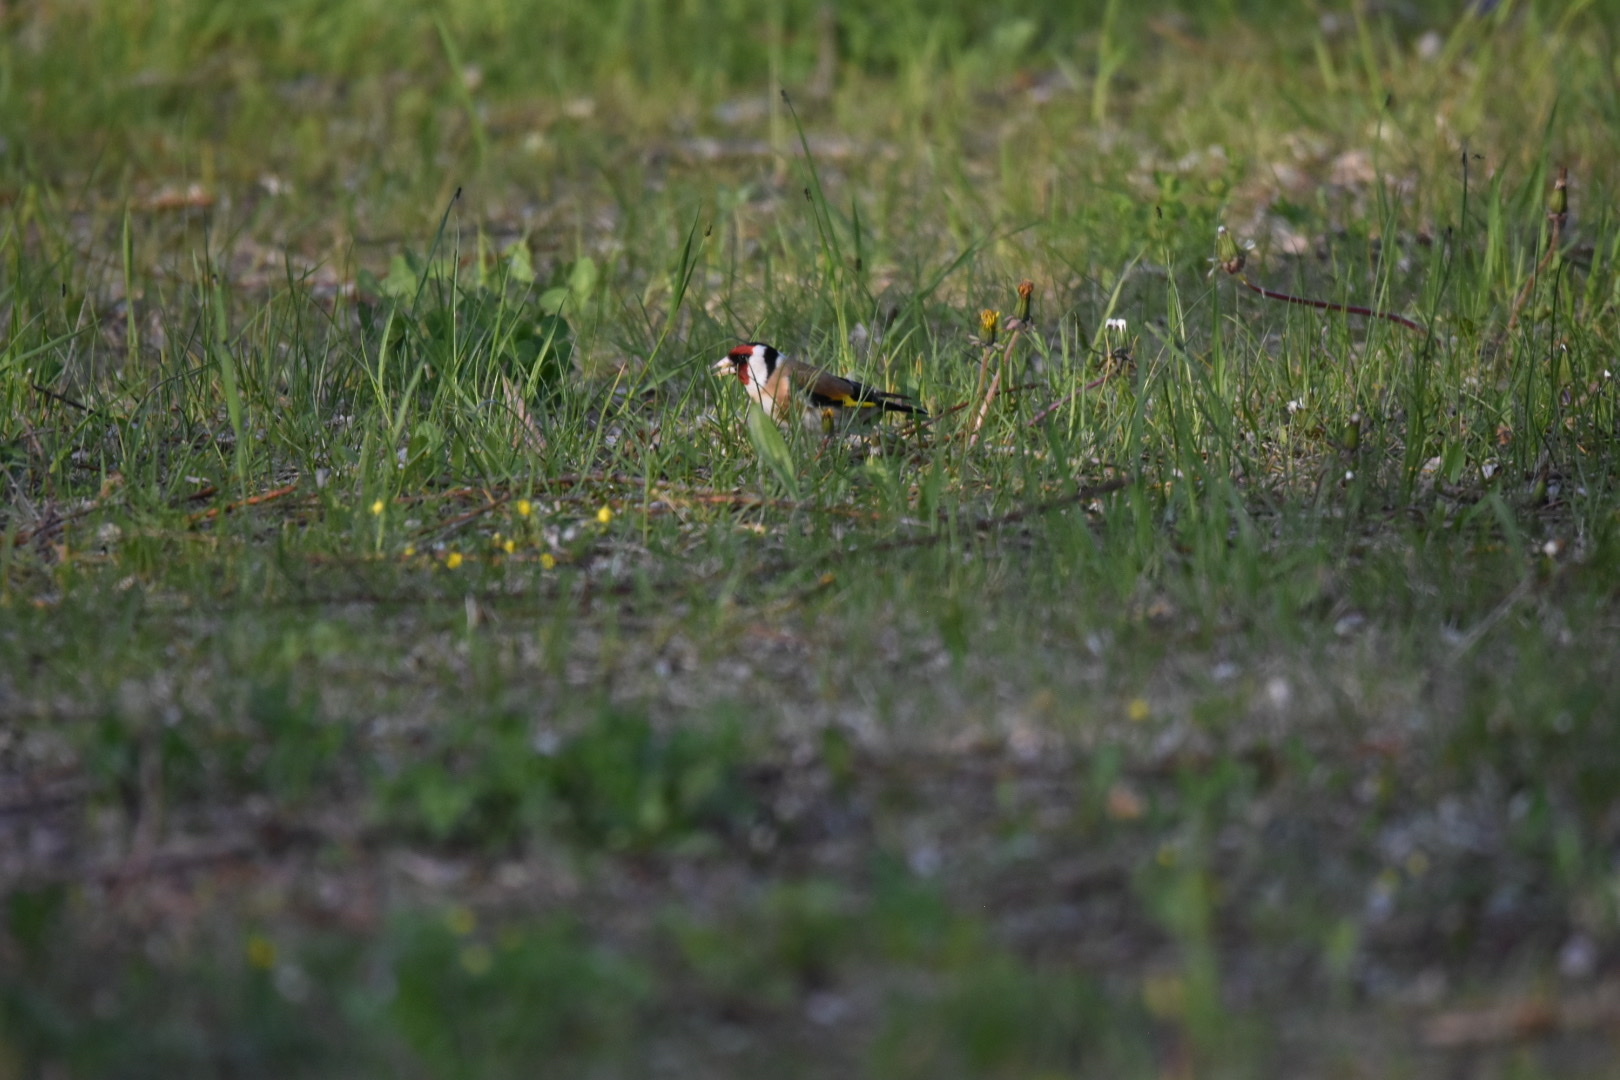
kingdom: Animalia
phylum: Chordata
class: Aves
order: Passeriformes
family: Fringillidae
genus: Carduelis
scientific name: Carduelis carduelis
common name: European goldfinch
